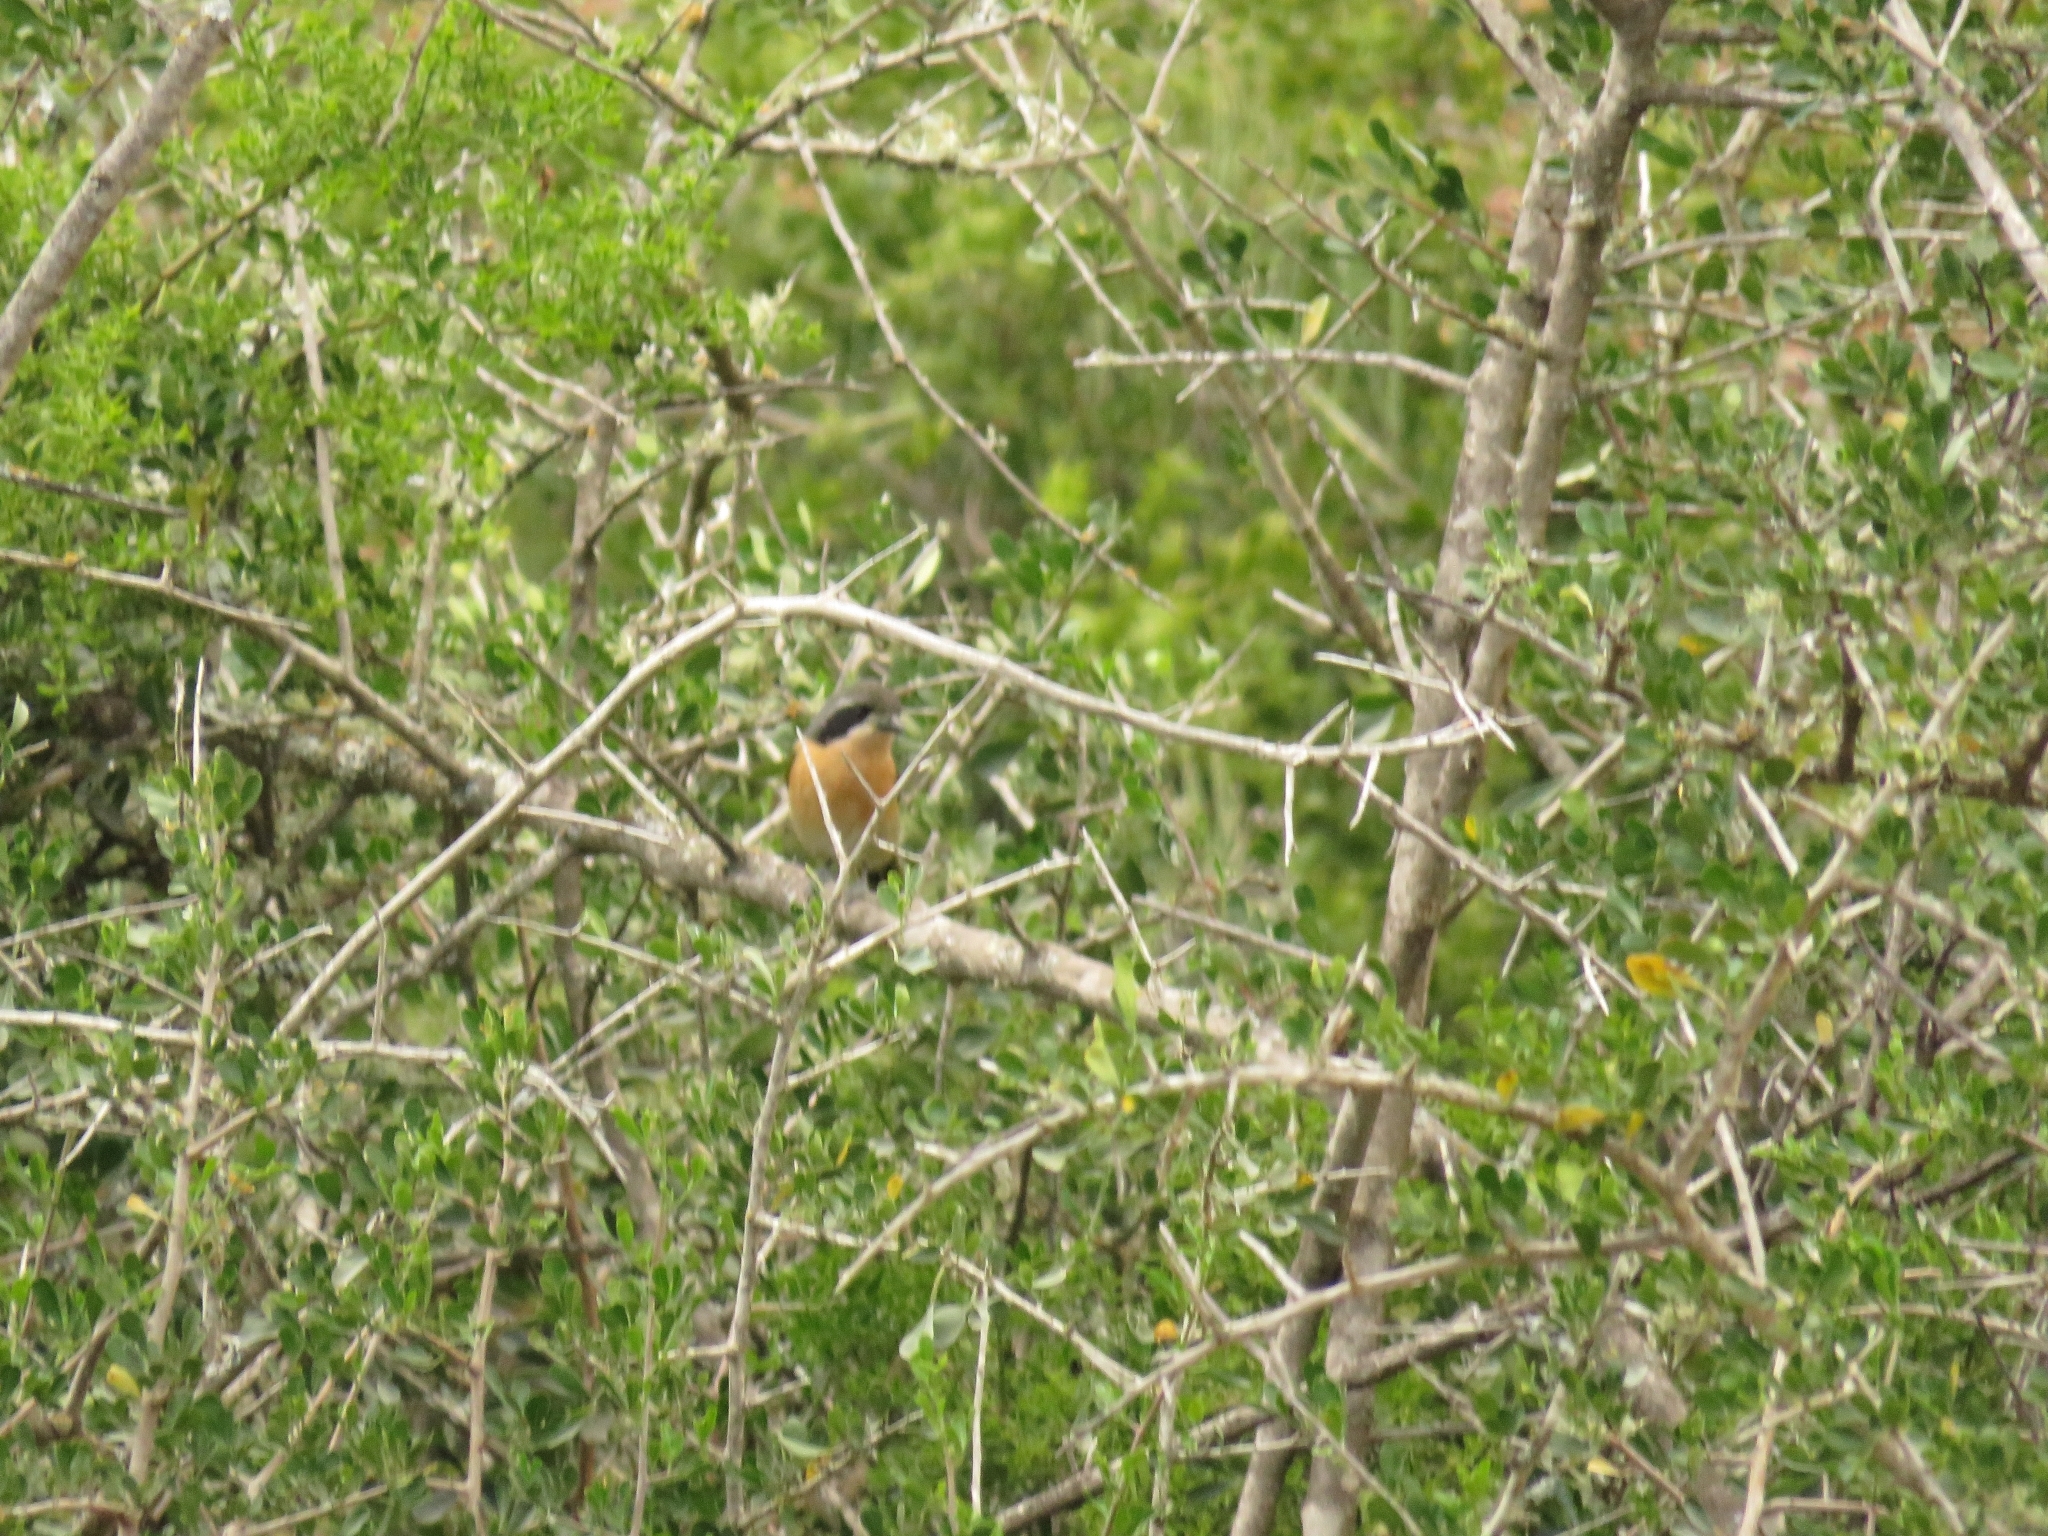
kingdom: Animalia
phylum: Chordata
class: Aves
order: Passeriformes
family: Malaconotidae
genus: Chlorophoneus
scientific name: Chlorophoneus olivaceus
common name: Olive bushshrike
